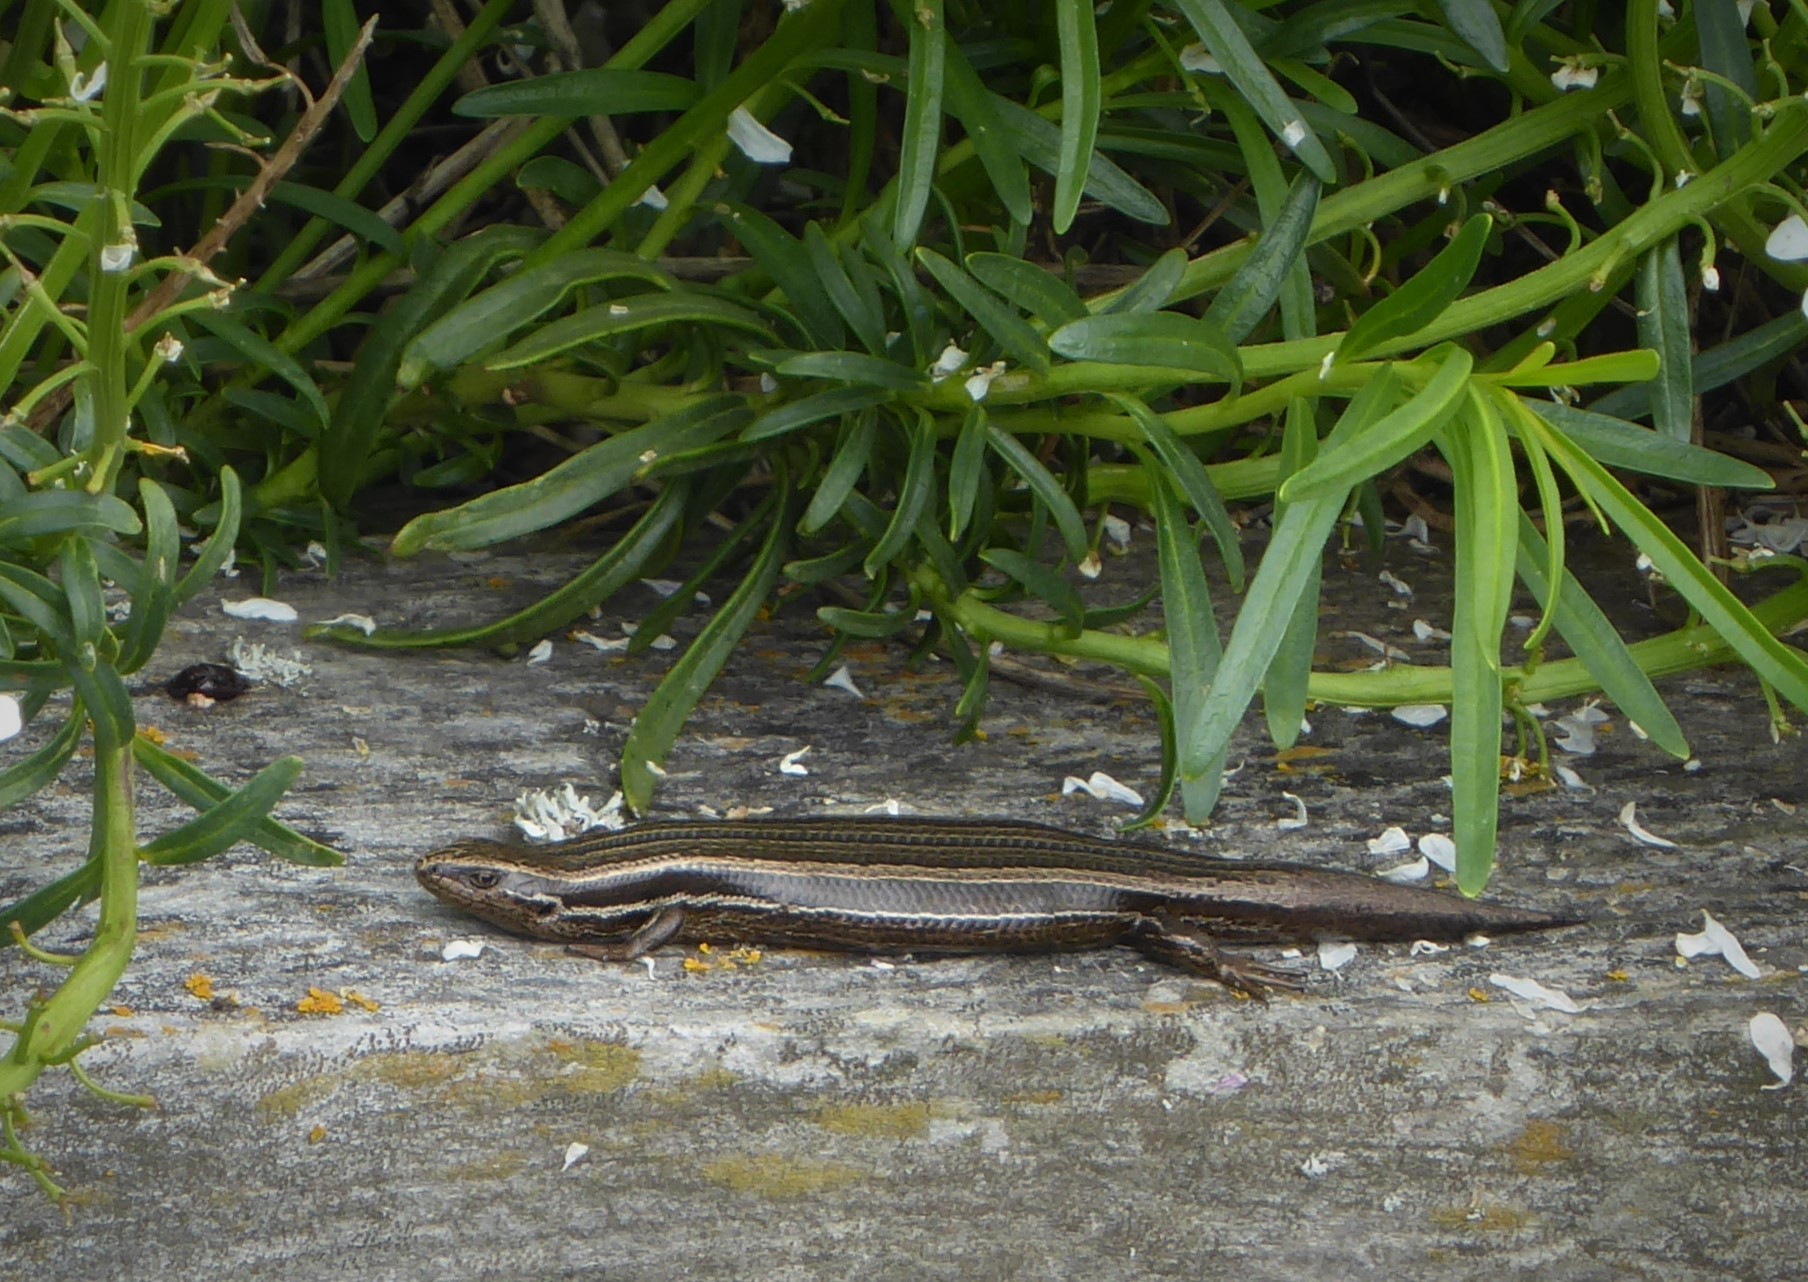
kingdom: Animalia
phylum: Chordata
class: Squamata
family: Scincidae
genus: Oligosoma
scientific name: Oligosoma polychroma
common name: Common new zealand skink
